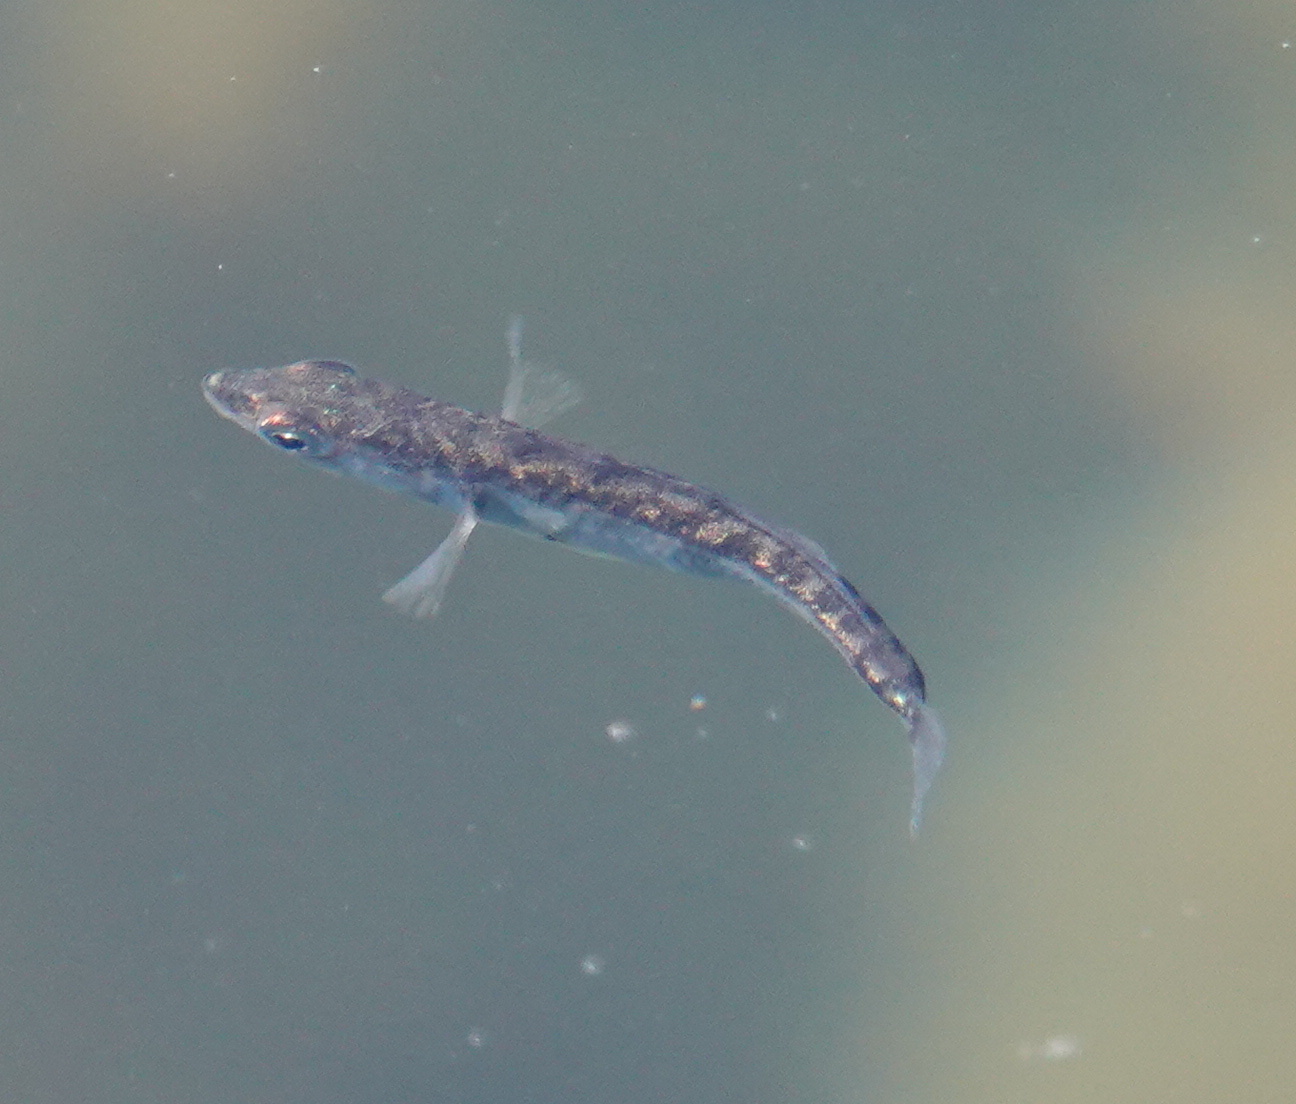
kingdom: Animalia
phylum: Chordata
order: Gasterosteiformes
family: Gasterosteidae
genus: Gasterosteus
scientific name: Gasterosteus aculeatus
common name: Three-spined stickleback
